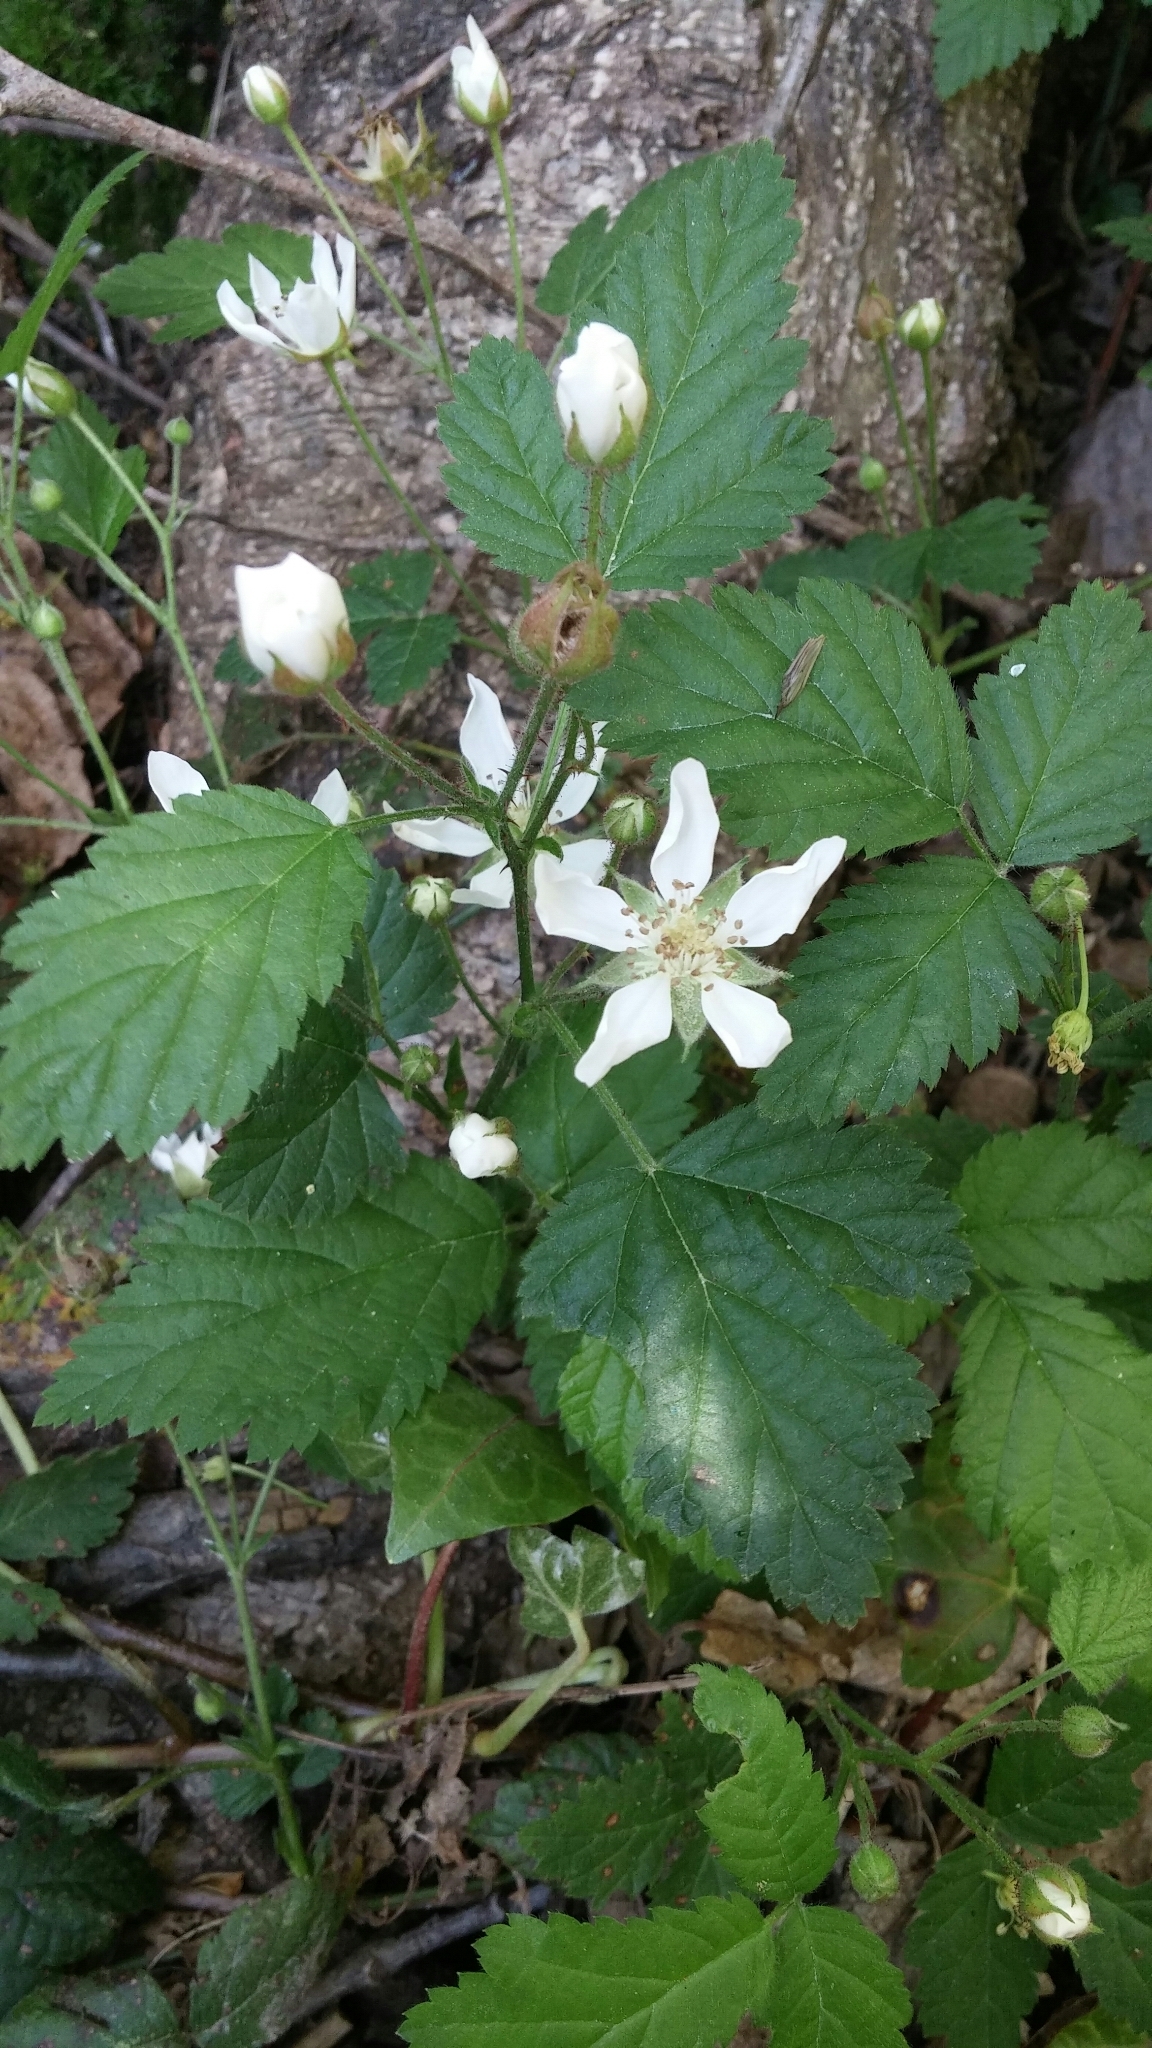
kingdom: Plantae
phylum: Tracheophyta
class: Magnoliopsida
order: Rosales
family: Rosaceae
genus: Rubus
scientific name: Rubus ursinus
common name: Pacific blackberry
